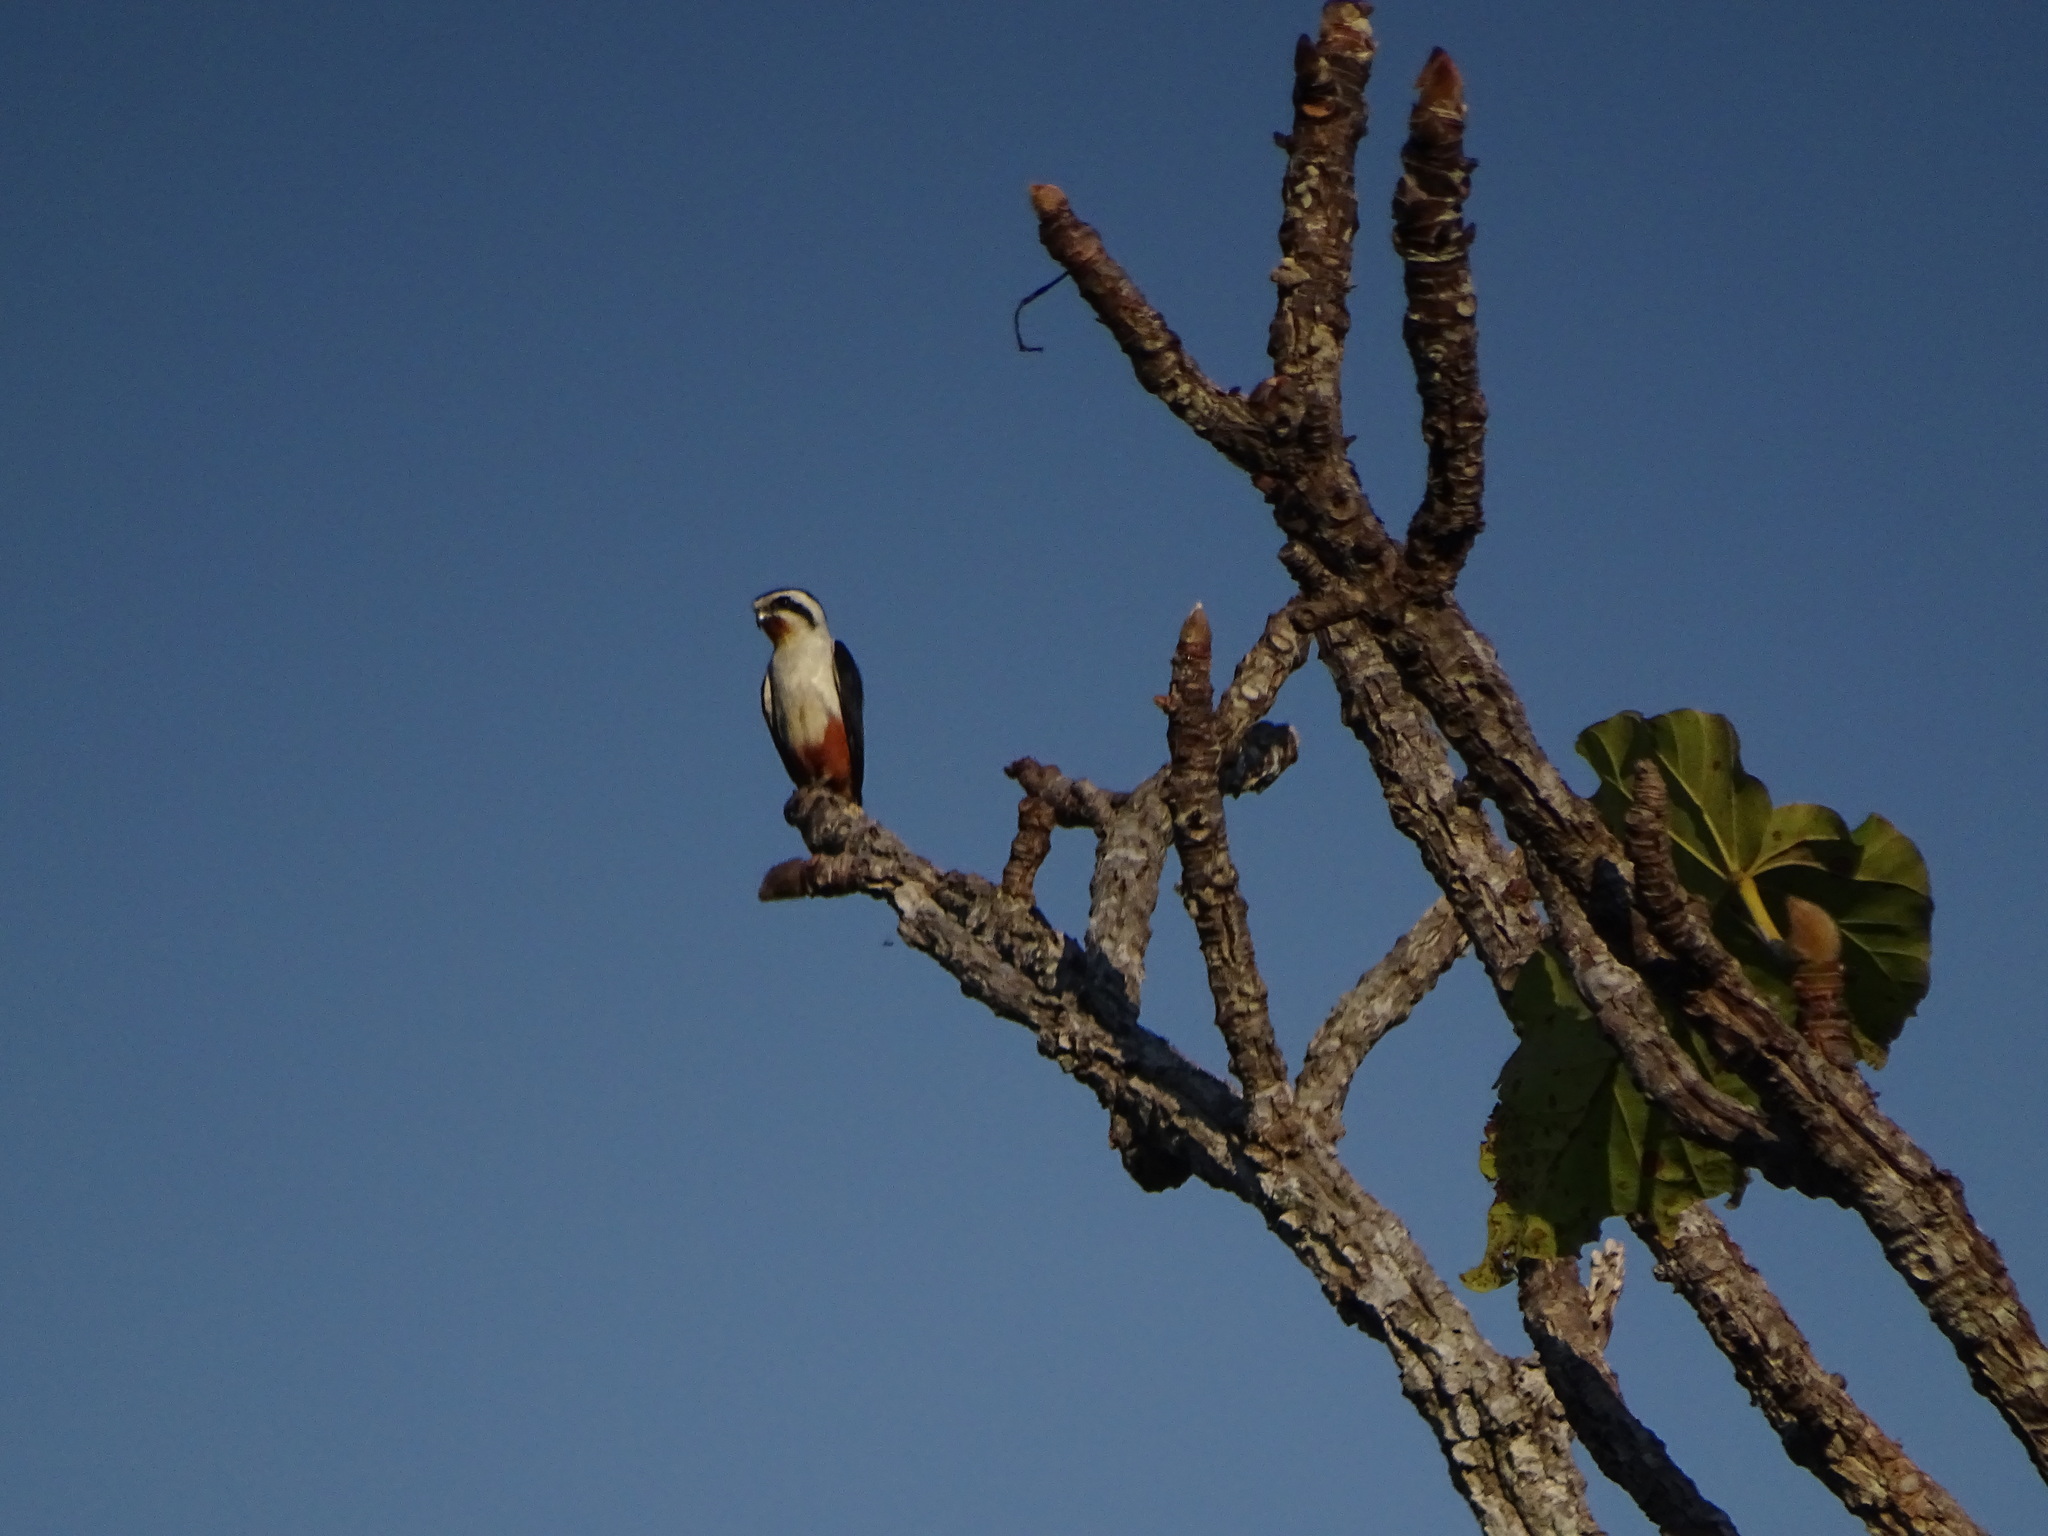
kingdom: Animalia
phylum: Chordata
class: Aves
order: Falconiformes
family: Falconidae
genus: Microhierax
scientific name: Microhierax caerulescens
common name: Collared falconet
